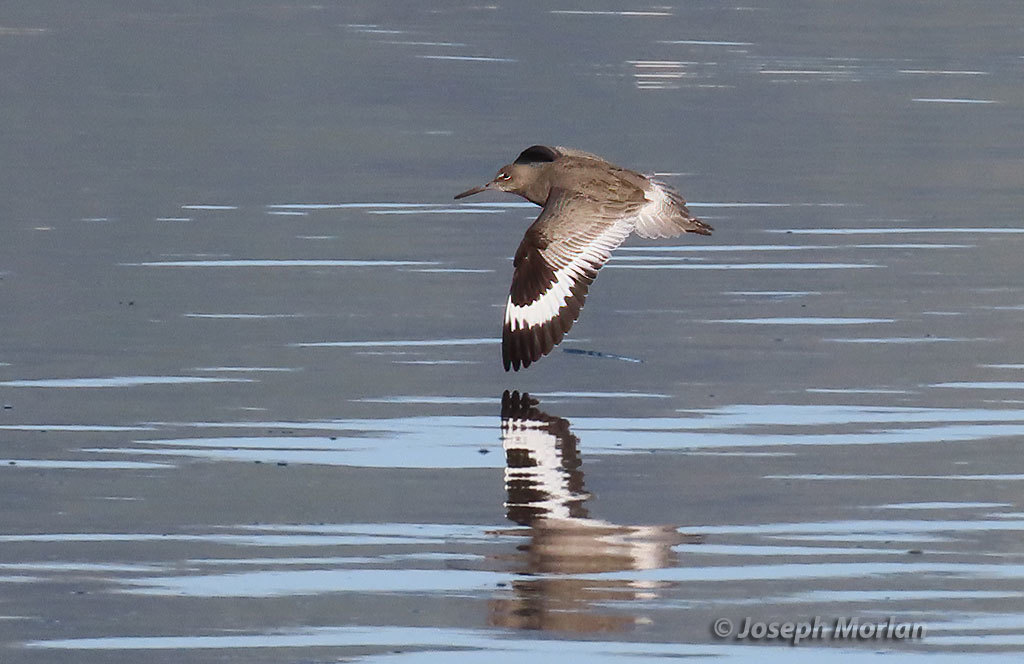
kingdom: Animalia
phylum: Chordata
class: Aves
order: Charadriiformes
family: Scolopacidae
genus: Tringa
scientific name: Tringa semipalmata
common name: Willet
